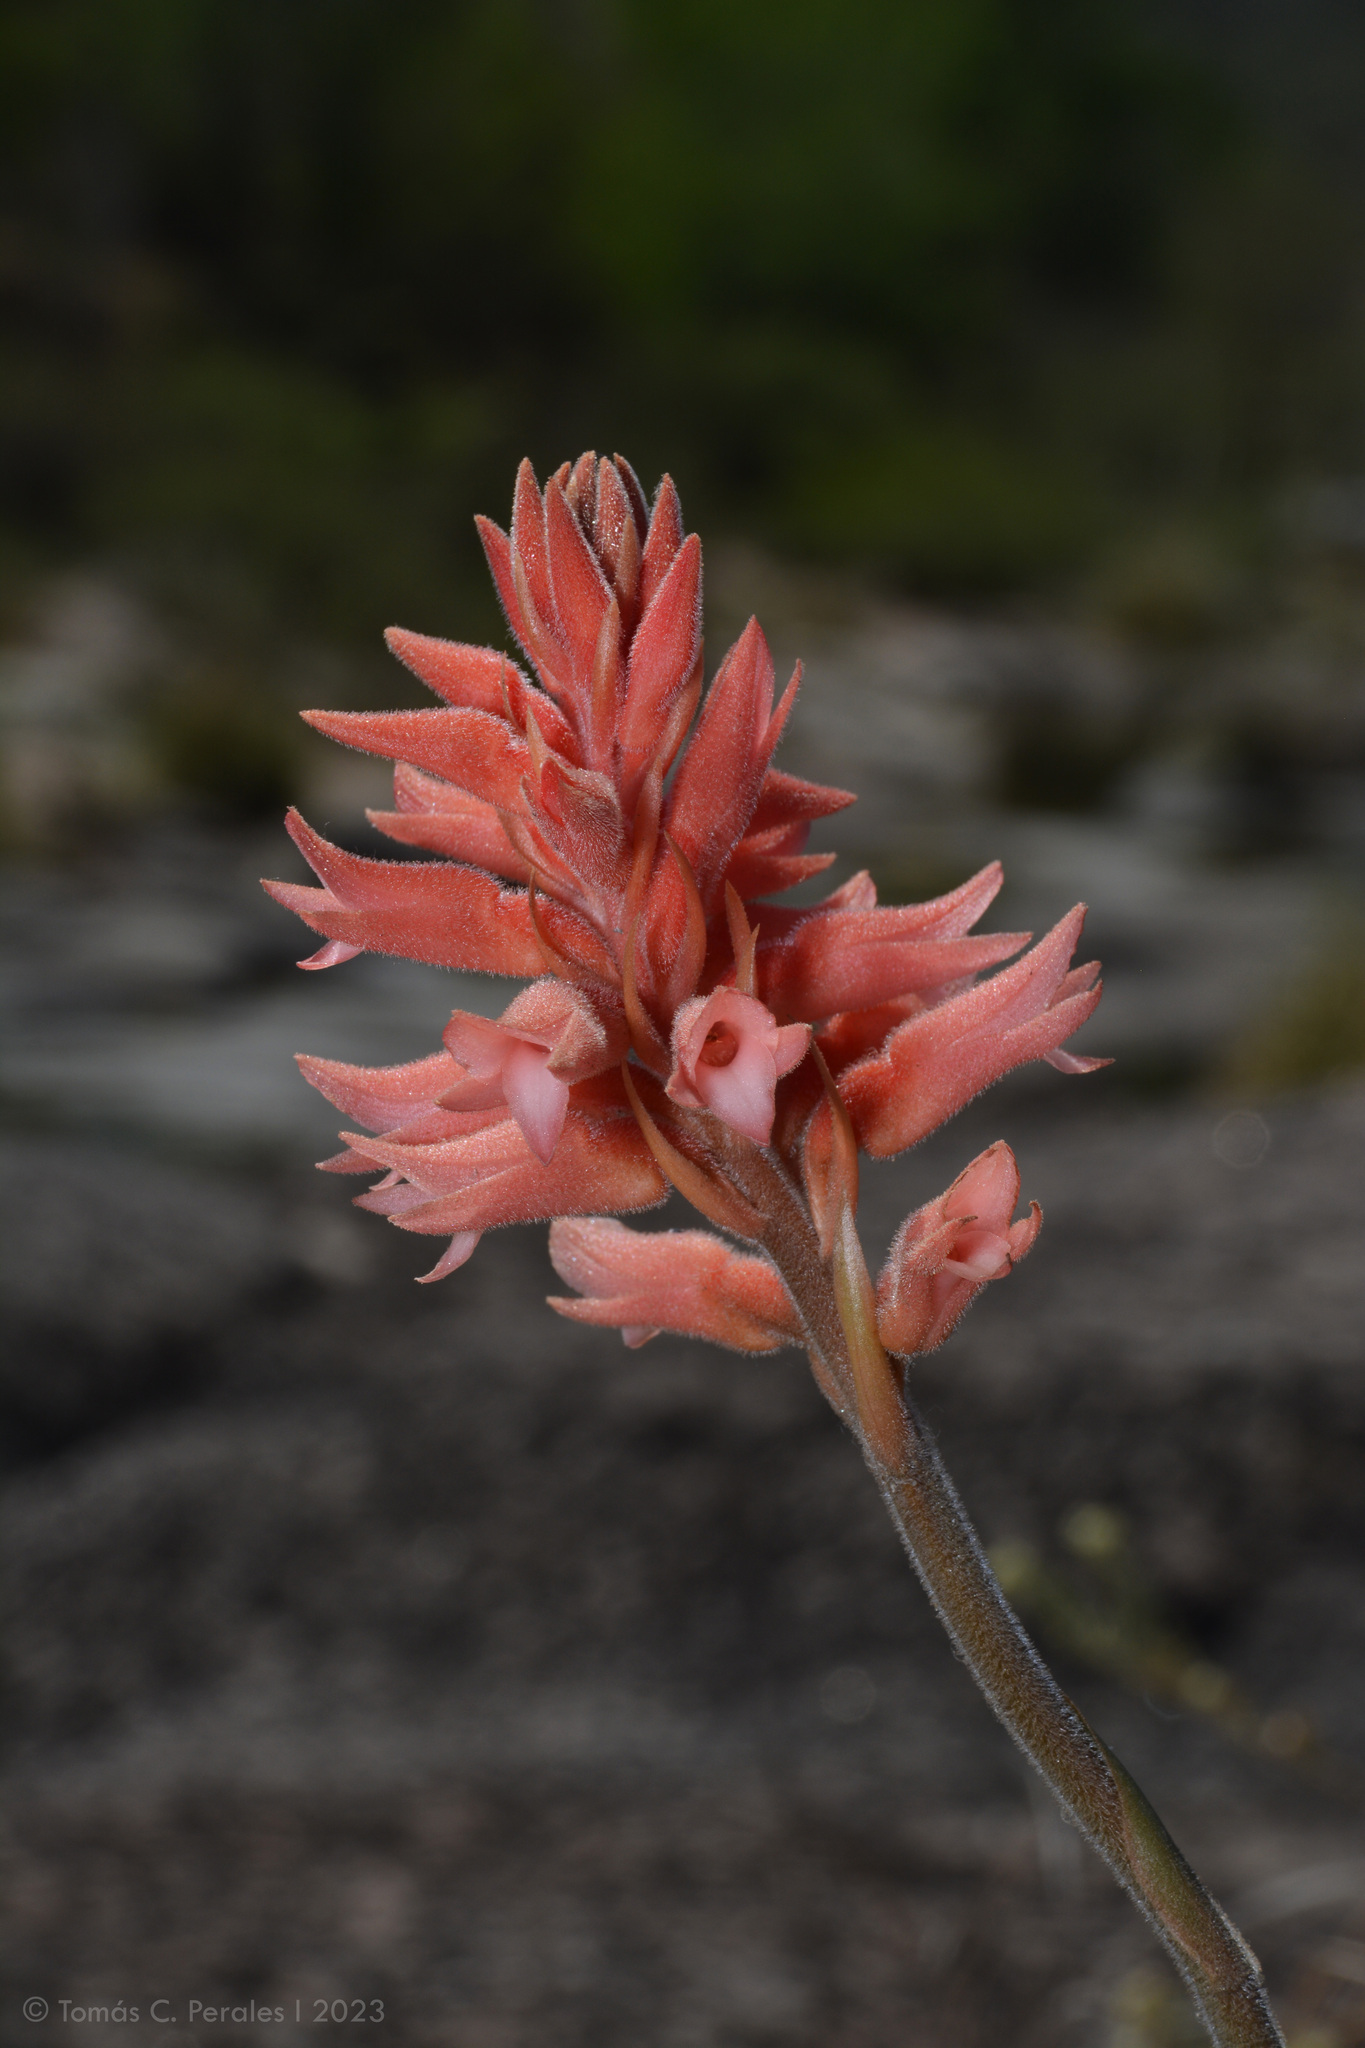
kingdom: Plantae
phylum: Tracheophyta
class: Liliopsida
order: Asparagales
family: Orchidaceae
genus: Sacoila
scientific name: Sacoila lanceolata
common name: Leafless beaked ladiestresses
